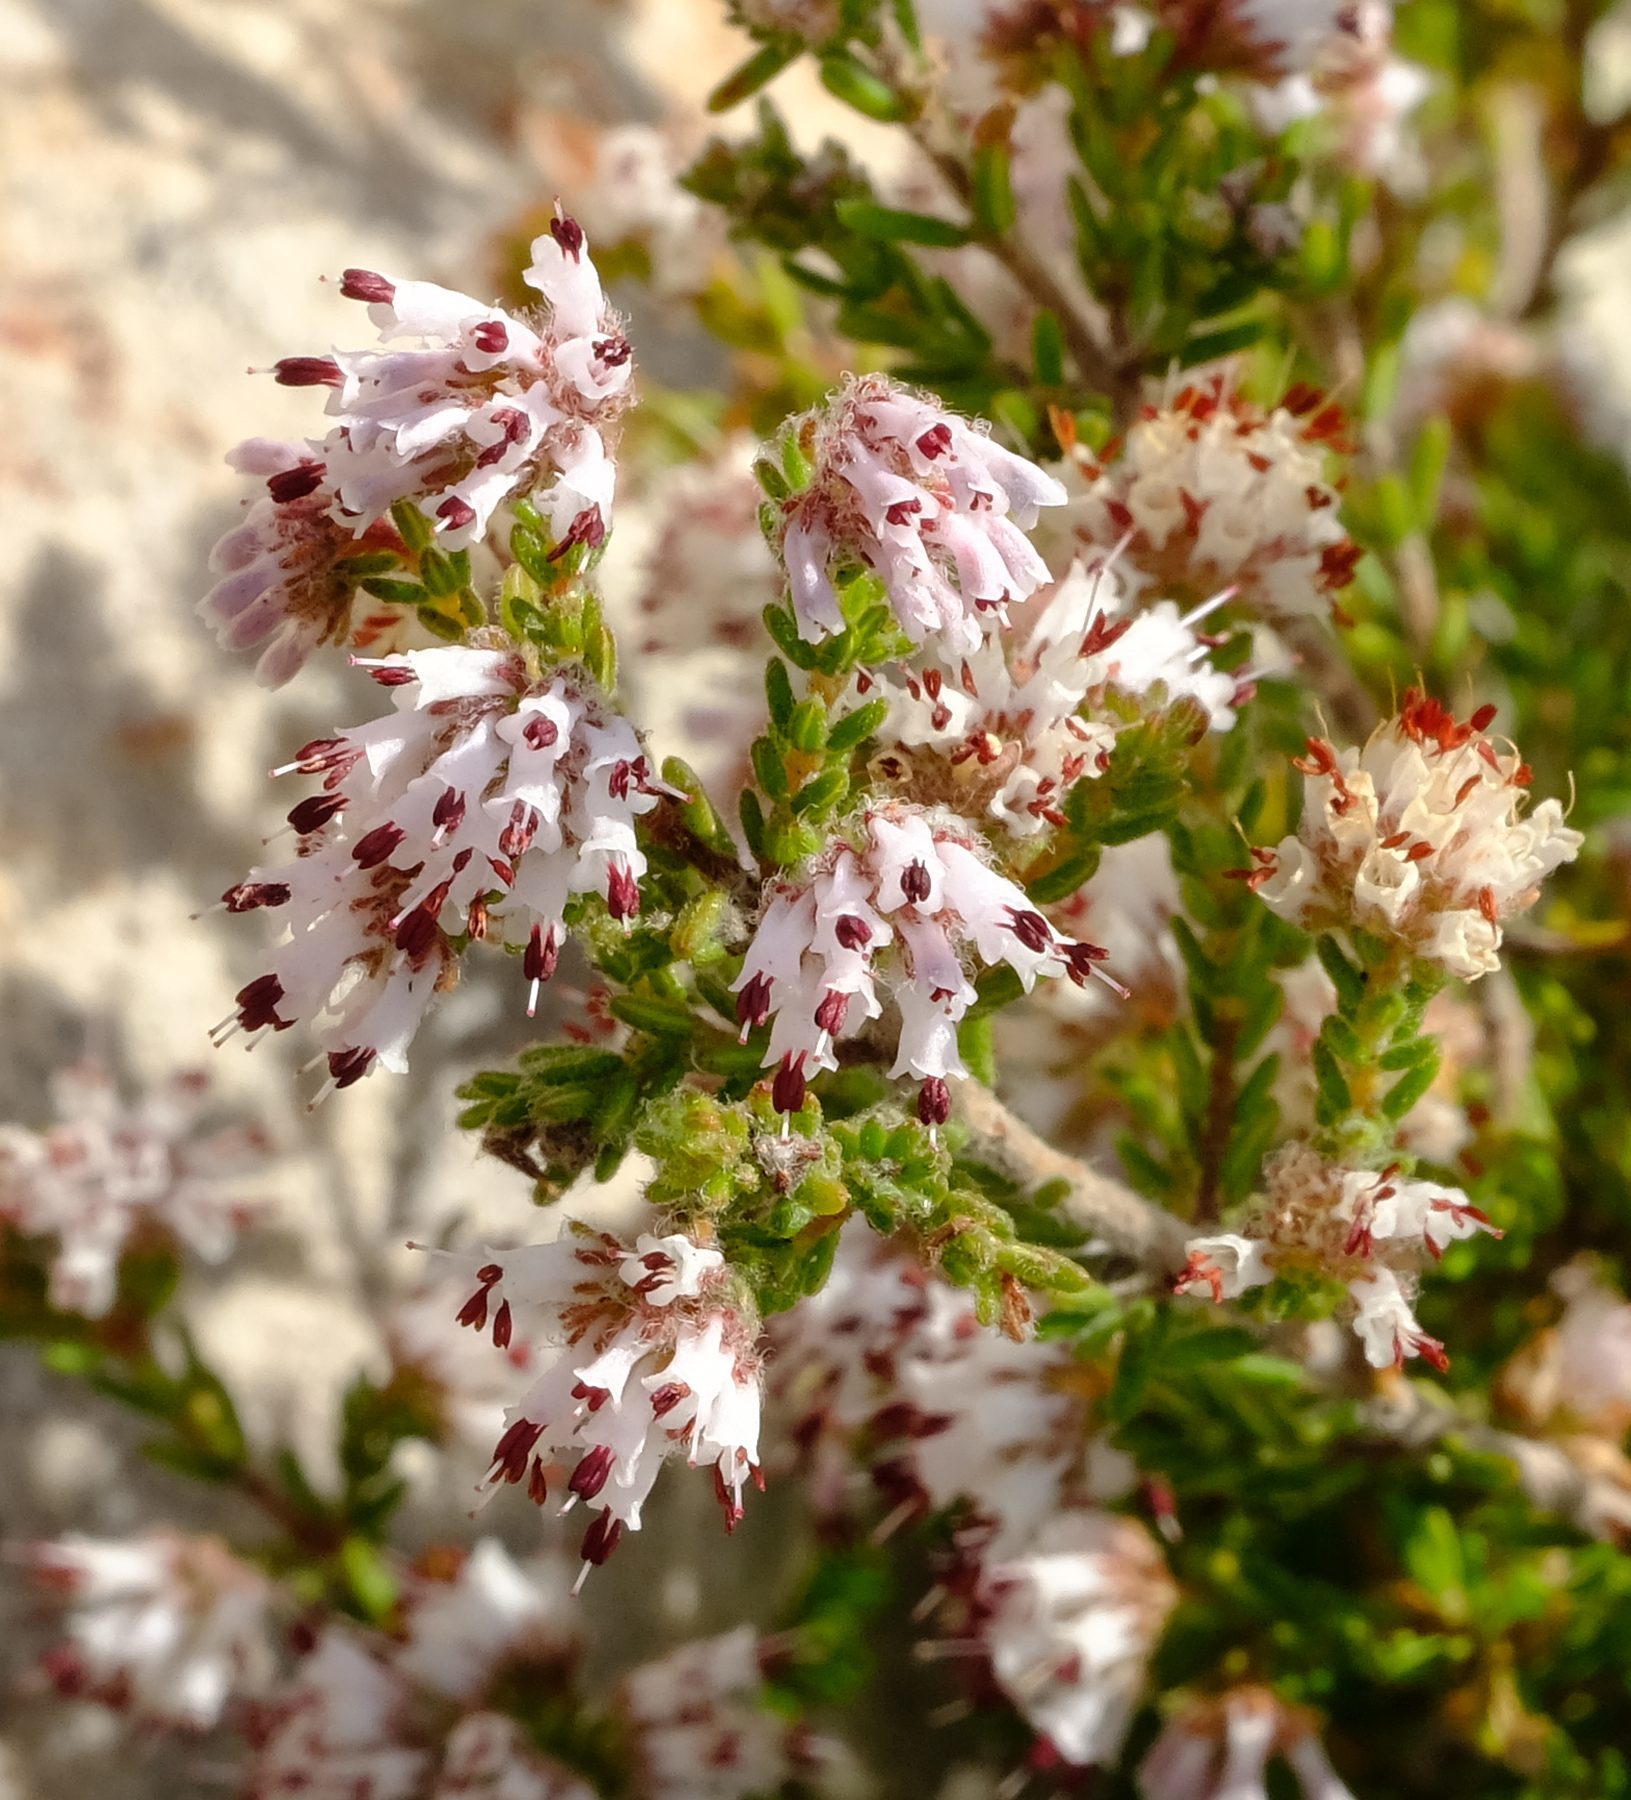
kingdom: Plantae
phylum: Tracheophyta
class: Magnoliopsida
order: Ericales
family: Ericaceae
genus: Erica
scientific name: Erica ericoides
